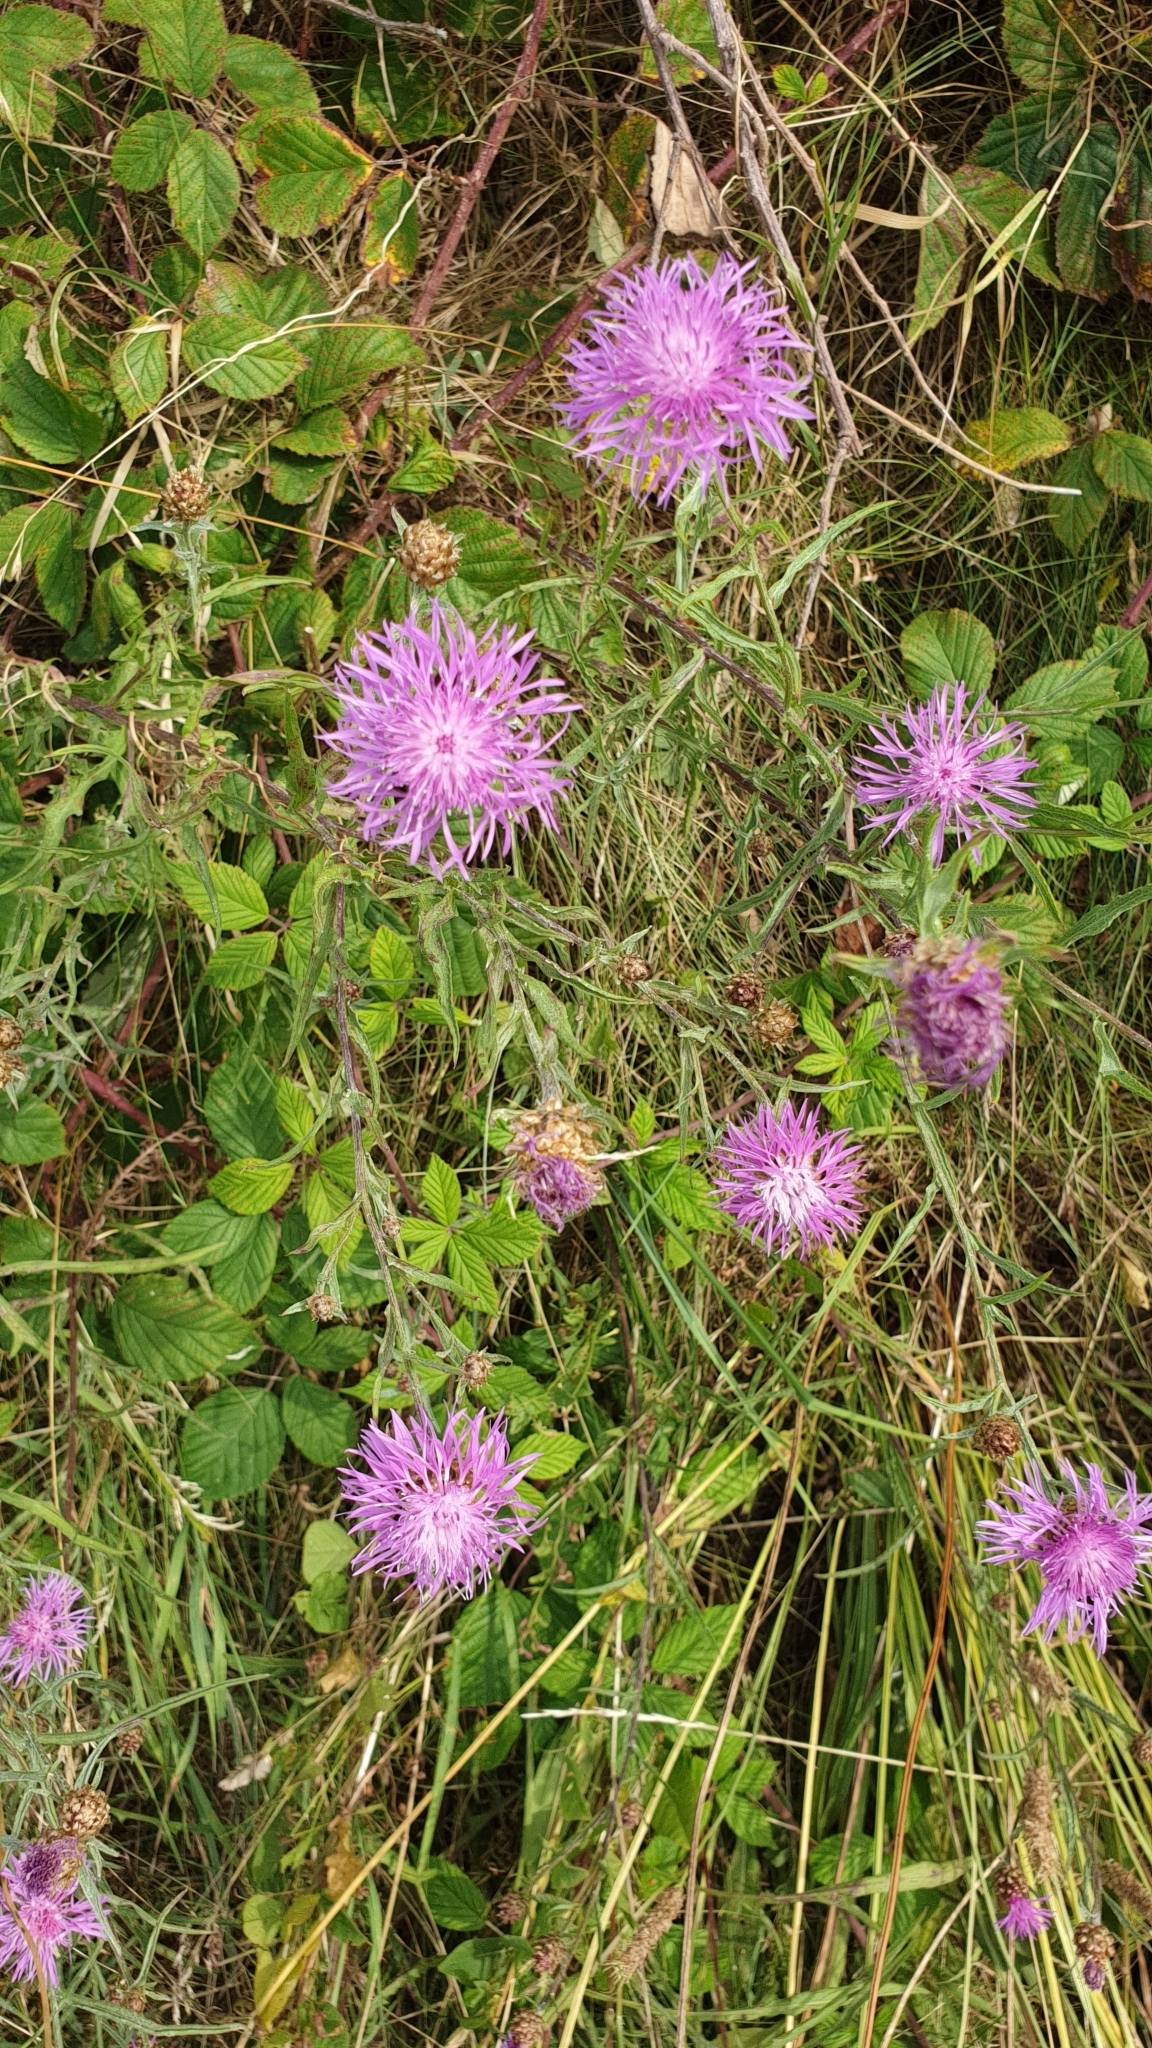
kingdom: Plantae
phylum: Tracheophyta
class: Magnoliopsida
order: Asterales
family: Asteraceae
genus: Centaurea
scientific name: Centaurea jacea
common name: Brown knapweed
